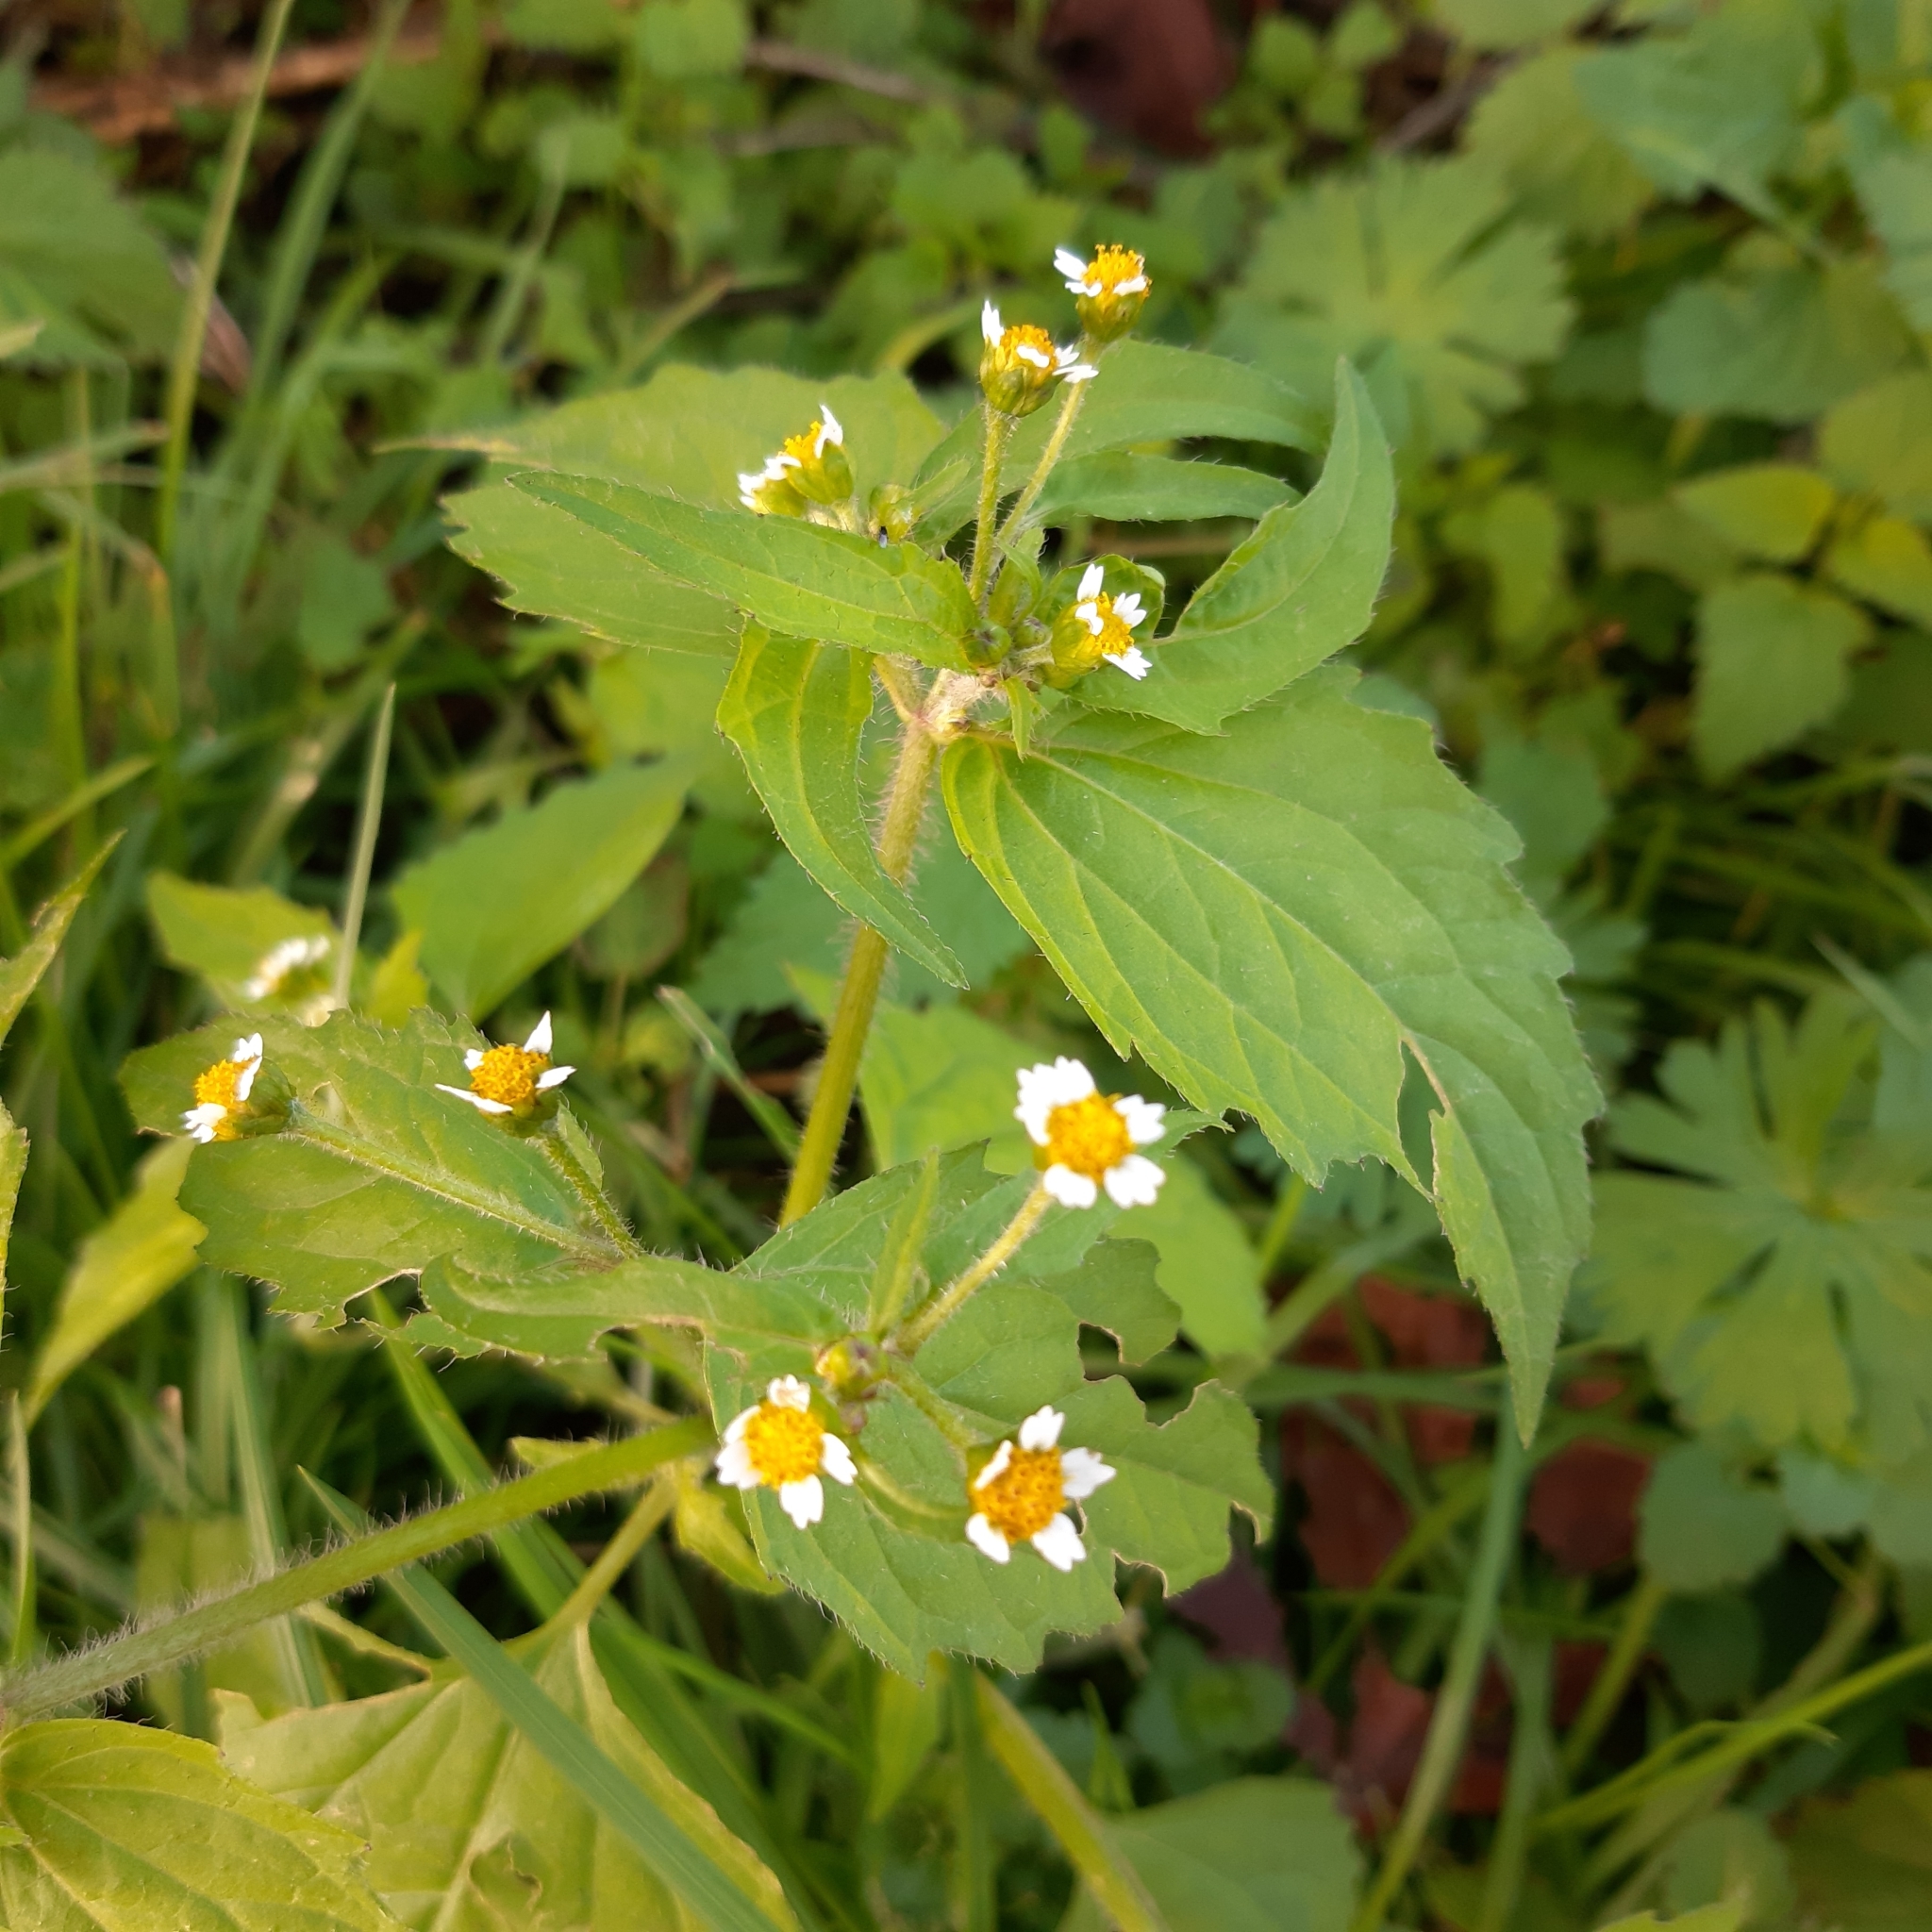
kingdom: Plantae
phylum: Tracheophyta
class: Magnoliopsida
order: Asterales
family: Asteraceae
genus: Galinsoga
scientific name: Galinsoga quadriradiata
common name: Shaggy soldier
